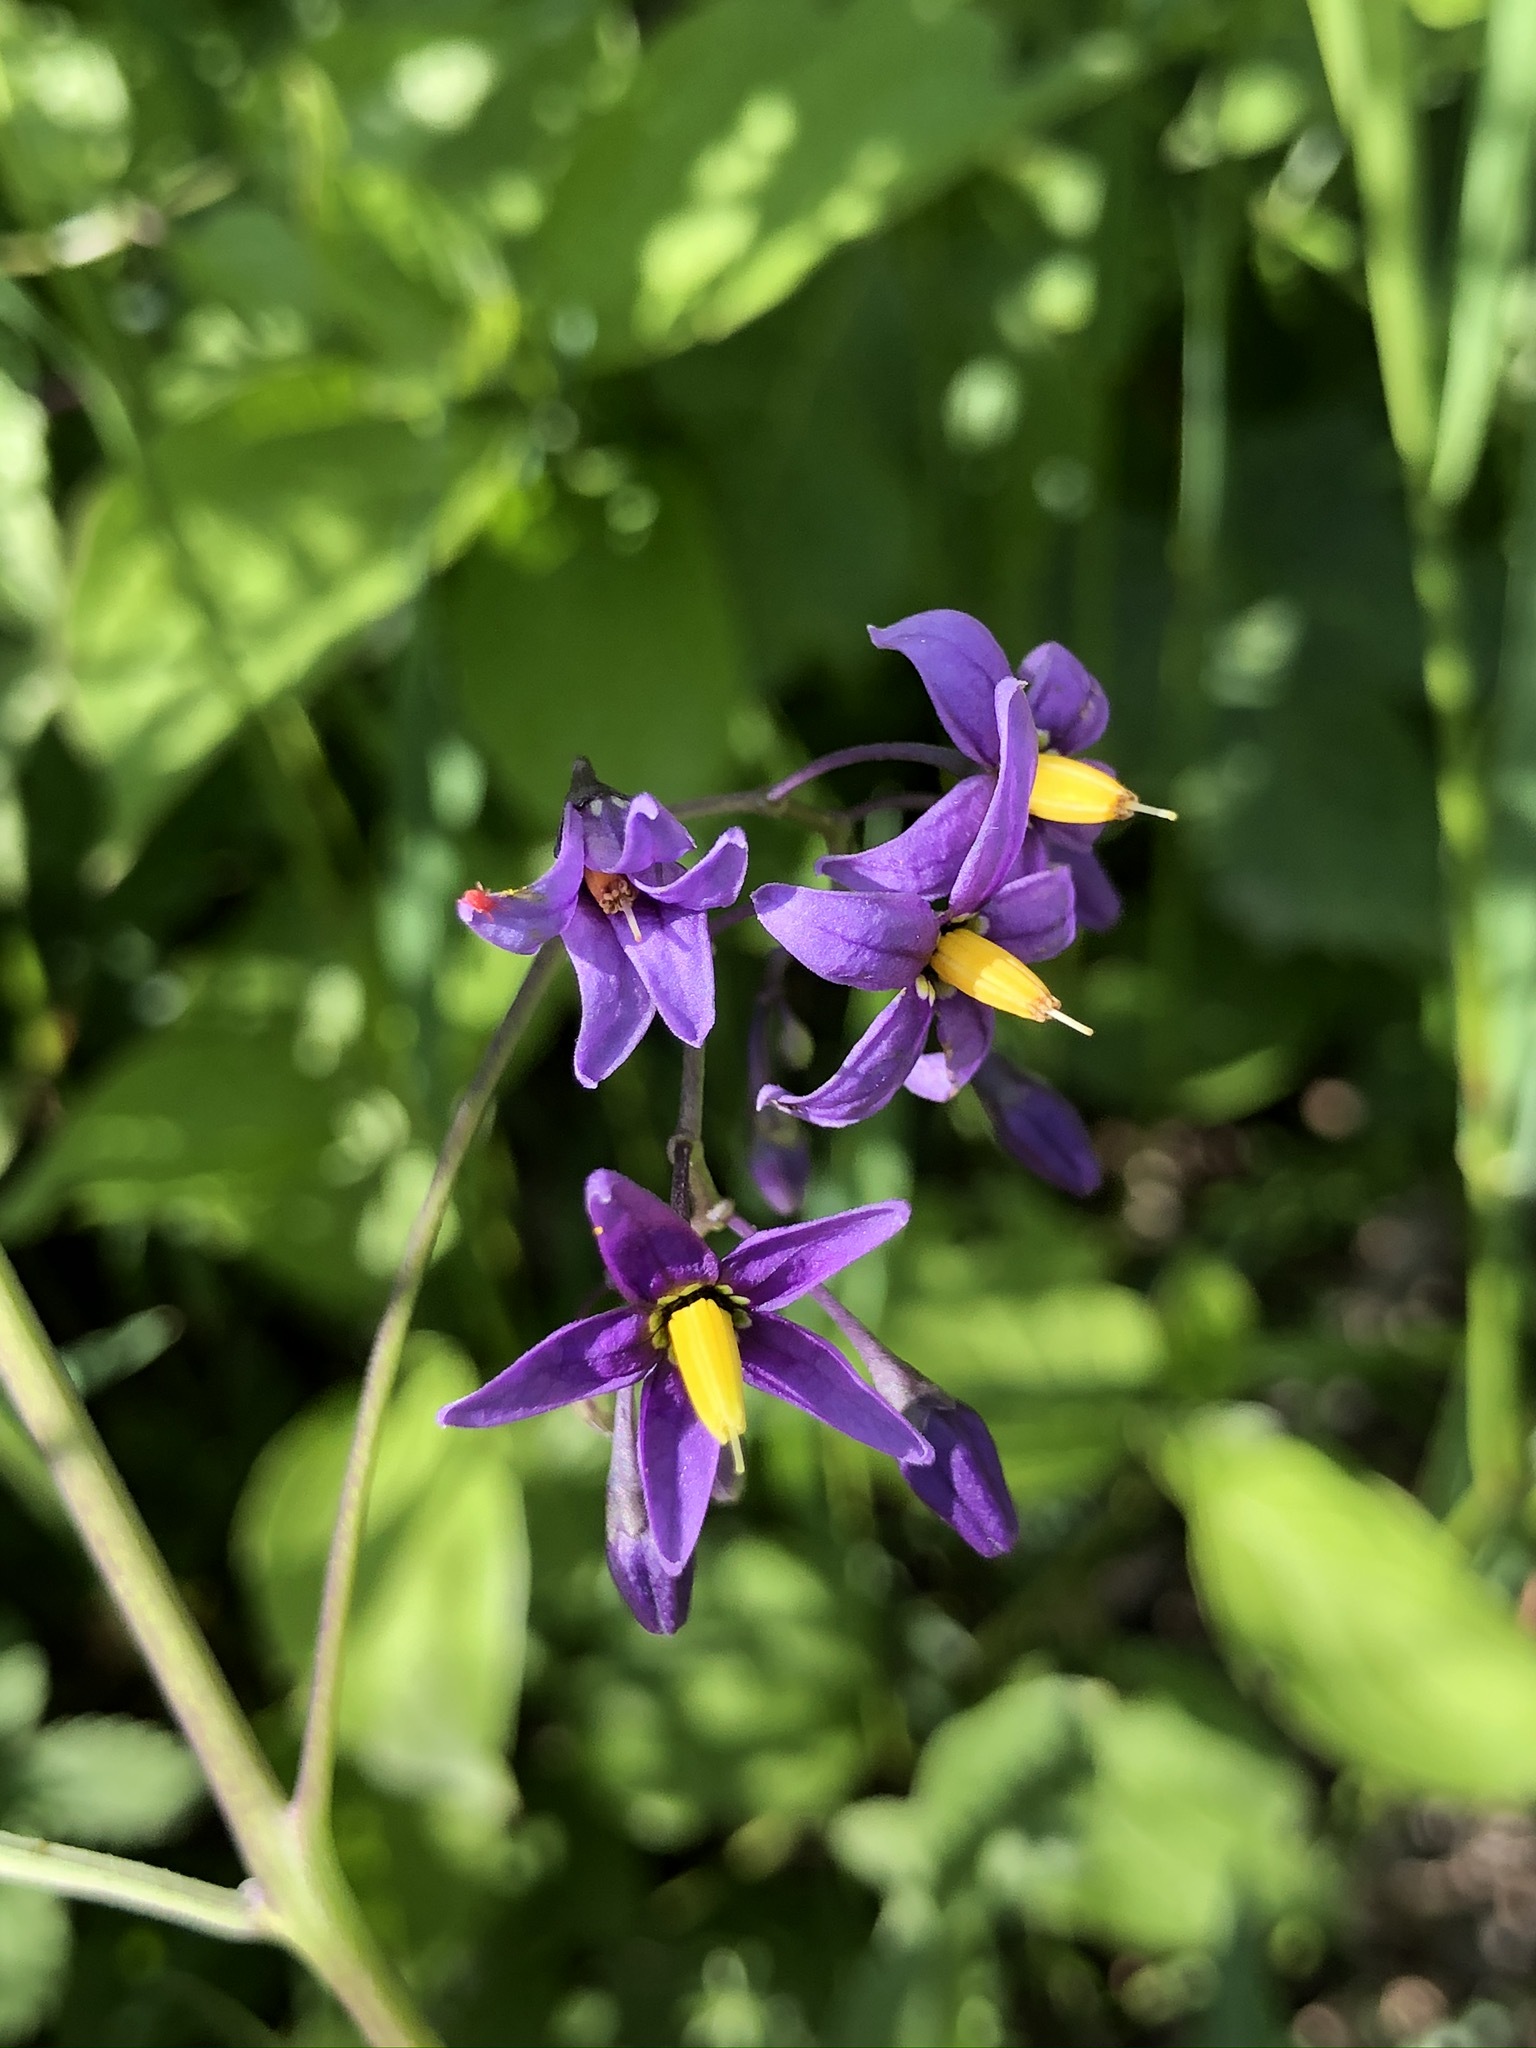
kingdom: Plantae
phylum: Tracheophyta
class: Magnoliopsida
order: Solanales
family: Solanaceae
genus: Solanum
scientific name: Solanum dulcamara
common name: Climbing nightshade
